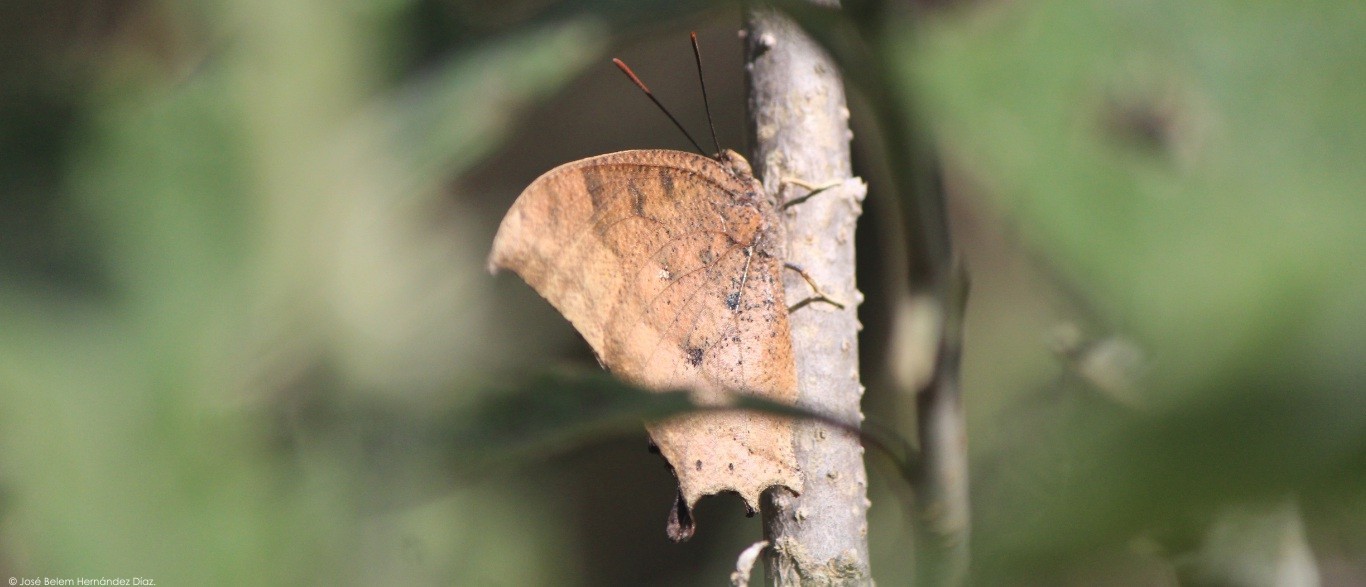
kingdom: Animalia
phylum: Arthropoda
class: Insecta
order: Lepidoptera
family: Nymphalidae
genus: Anaea
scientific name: Anaea aidea
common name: Tropical leafwing
